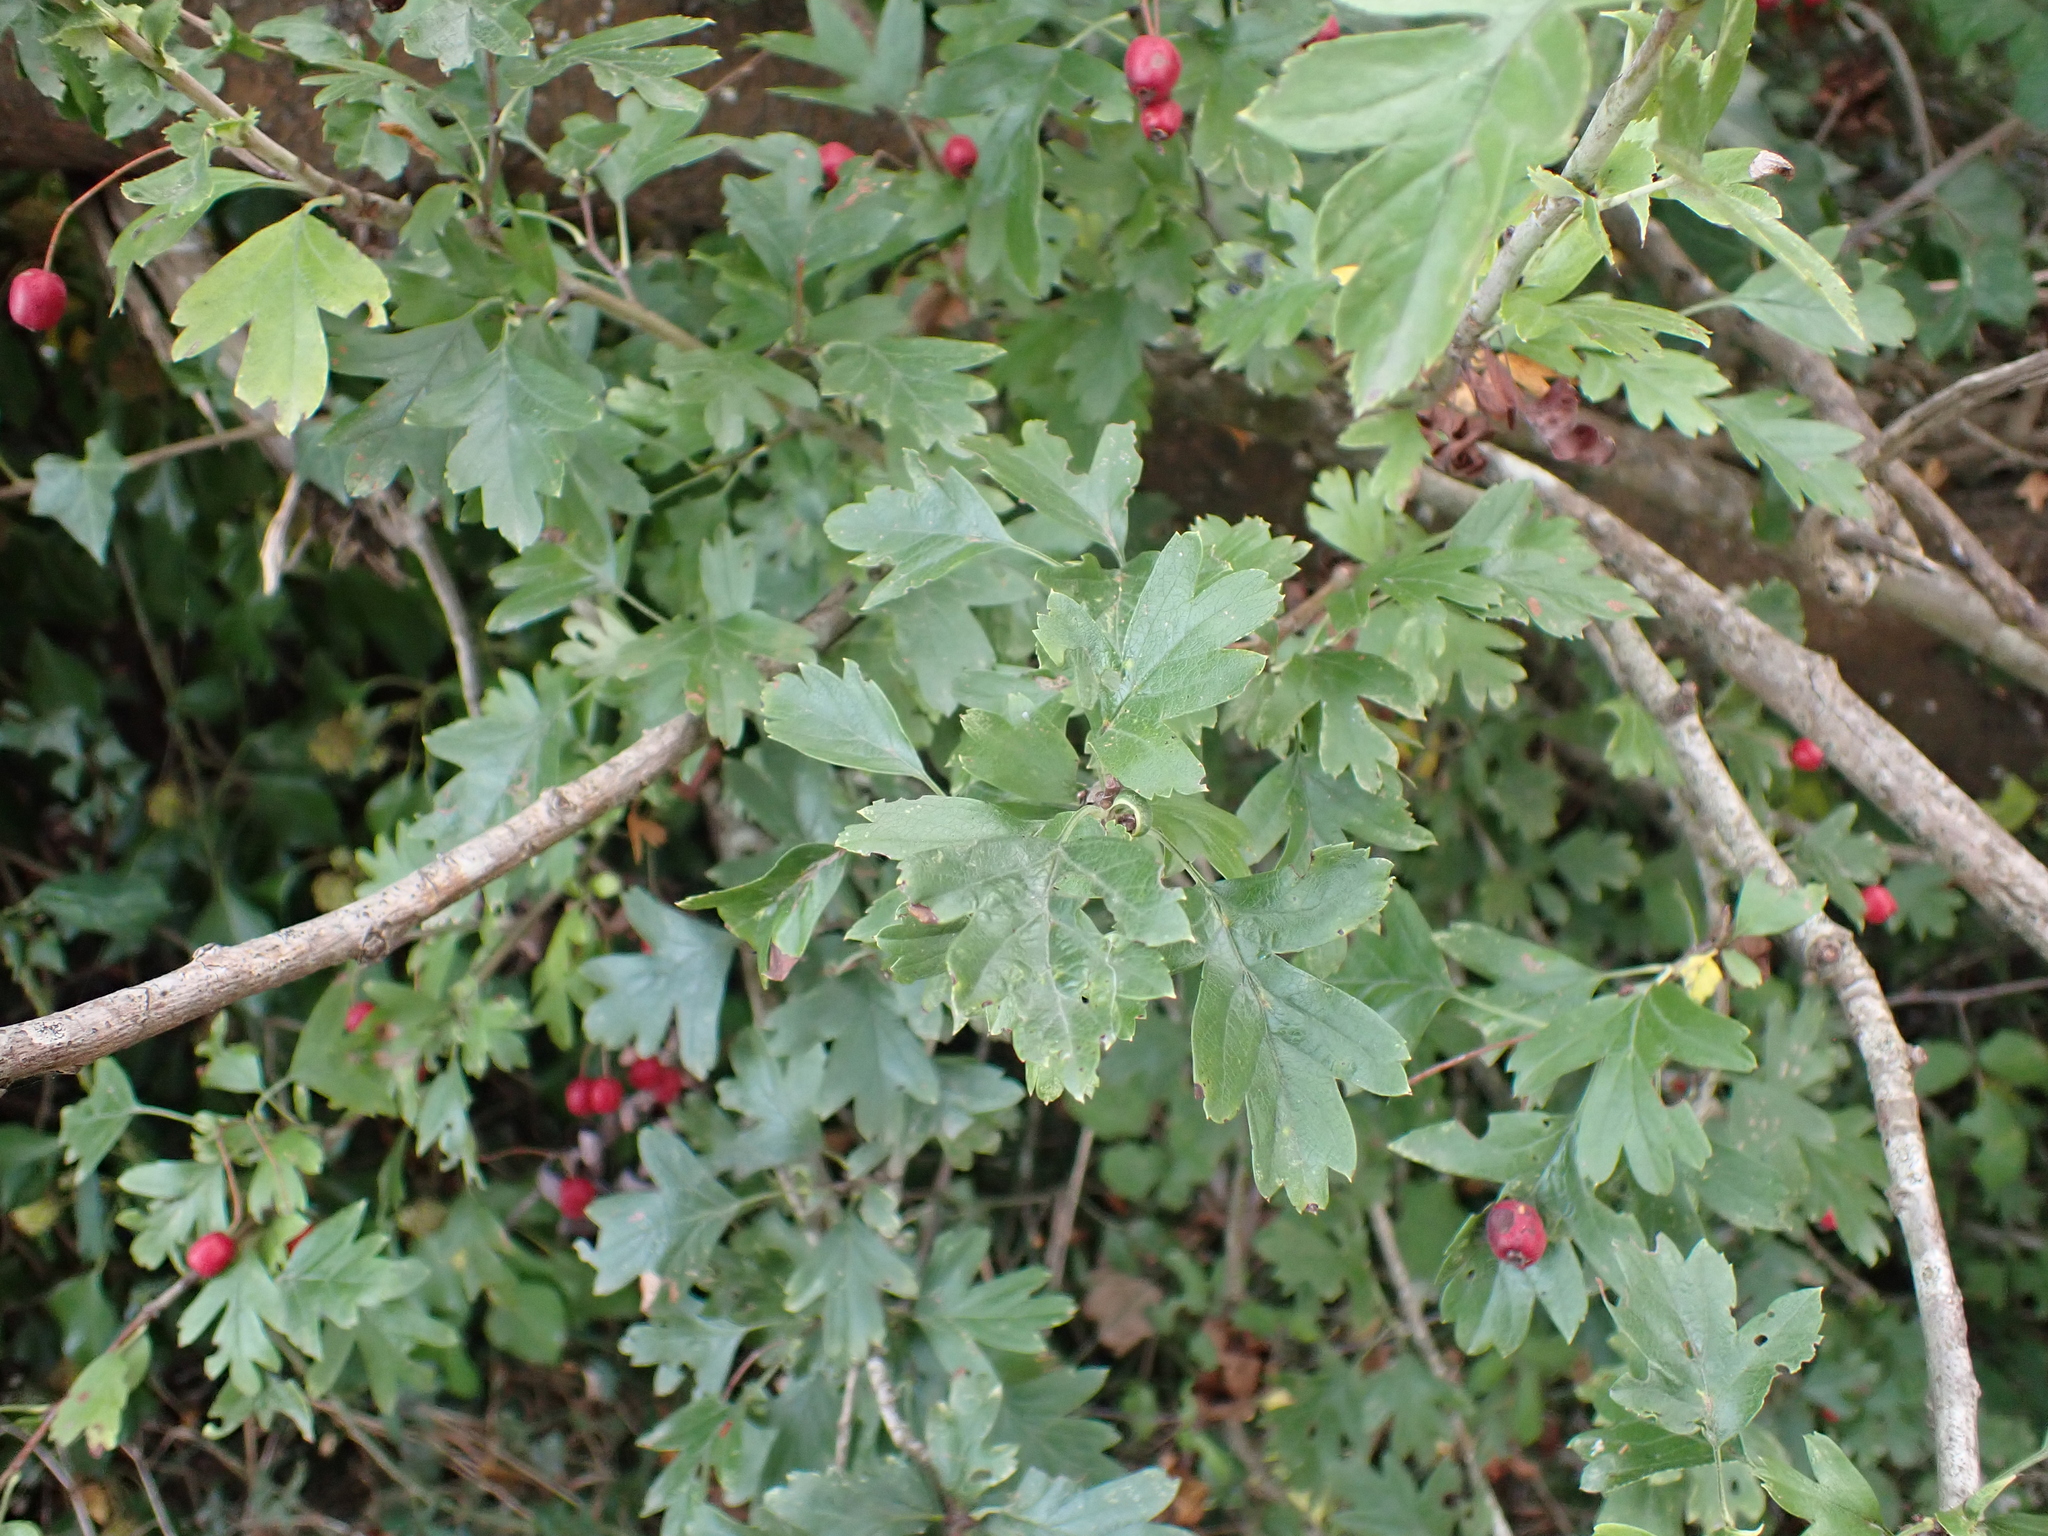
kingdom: Plantae
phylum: Tracheophyta
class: Magnoliopsida
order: Rosales
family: Rosaceae
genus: Crataegus
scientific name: Crataegus monogyna
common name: Hawthorn
